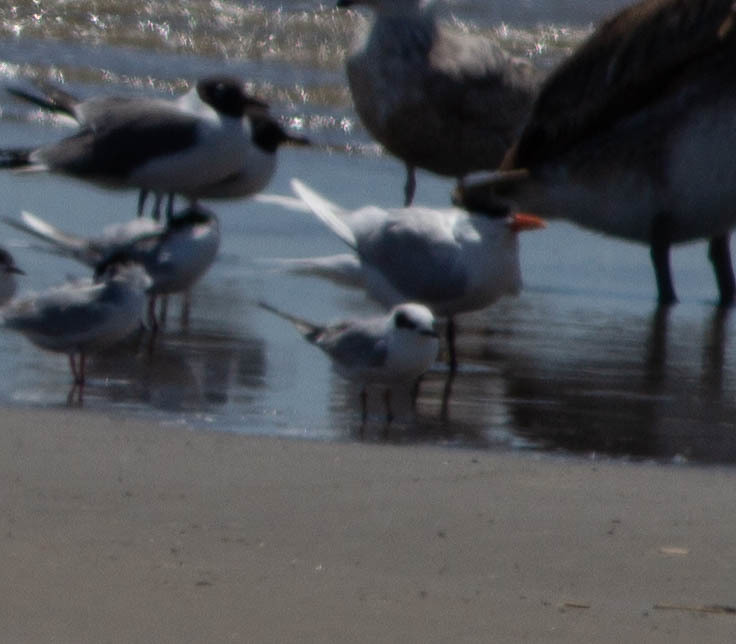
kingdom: Animalia
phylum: Chordata
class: Aves
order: Charadriiformes
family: Laridae
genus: Sterna
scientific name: Sterna forsteri
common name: Forster's tern
